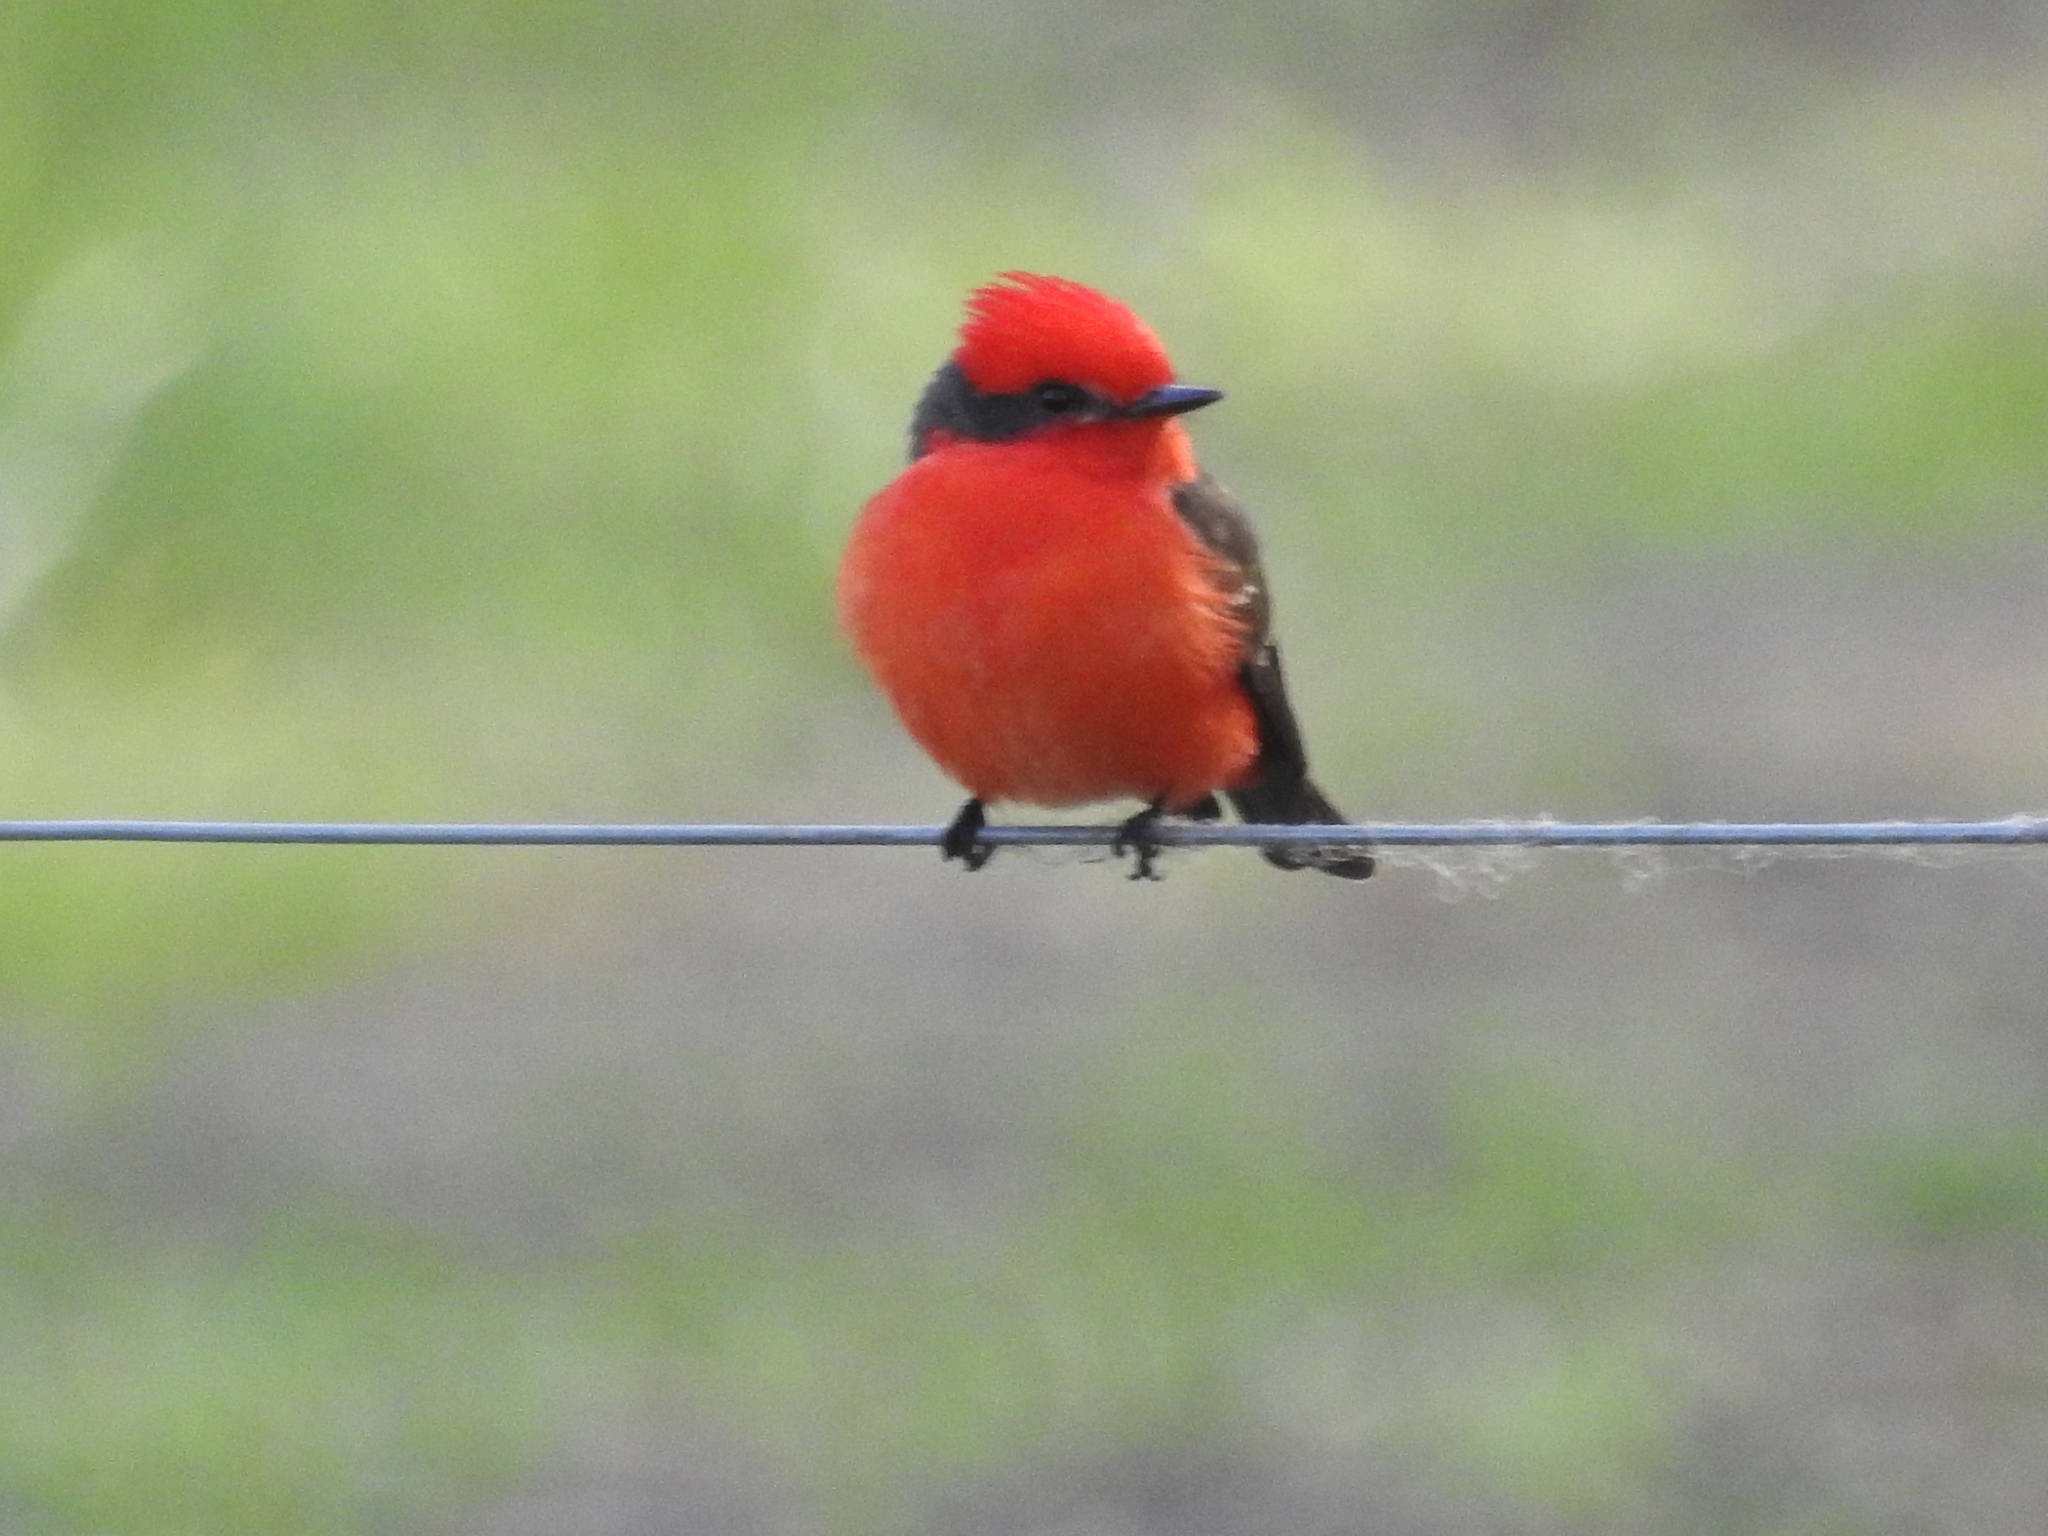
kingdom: Animalia
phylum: Chordata
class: Aves
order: Passeriformes
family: Tyrannidae
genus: Pyrocephalus
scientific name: Pyrocephalus rubinus
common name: Vermilion flycatcher
